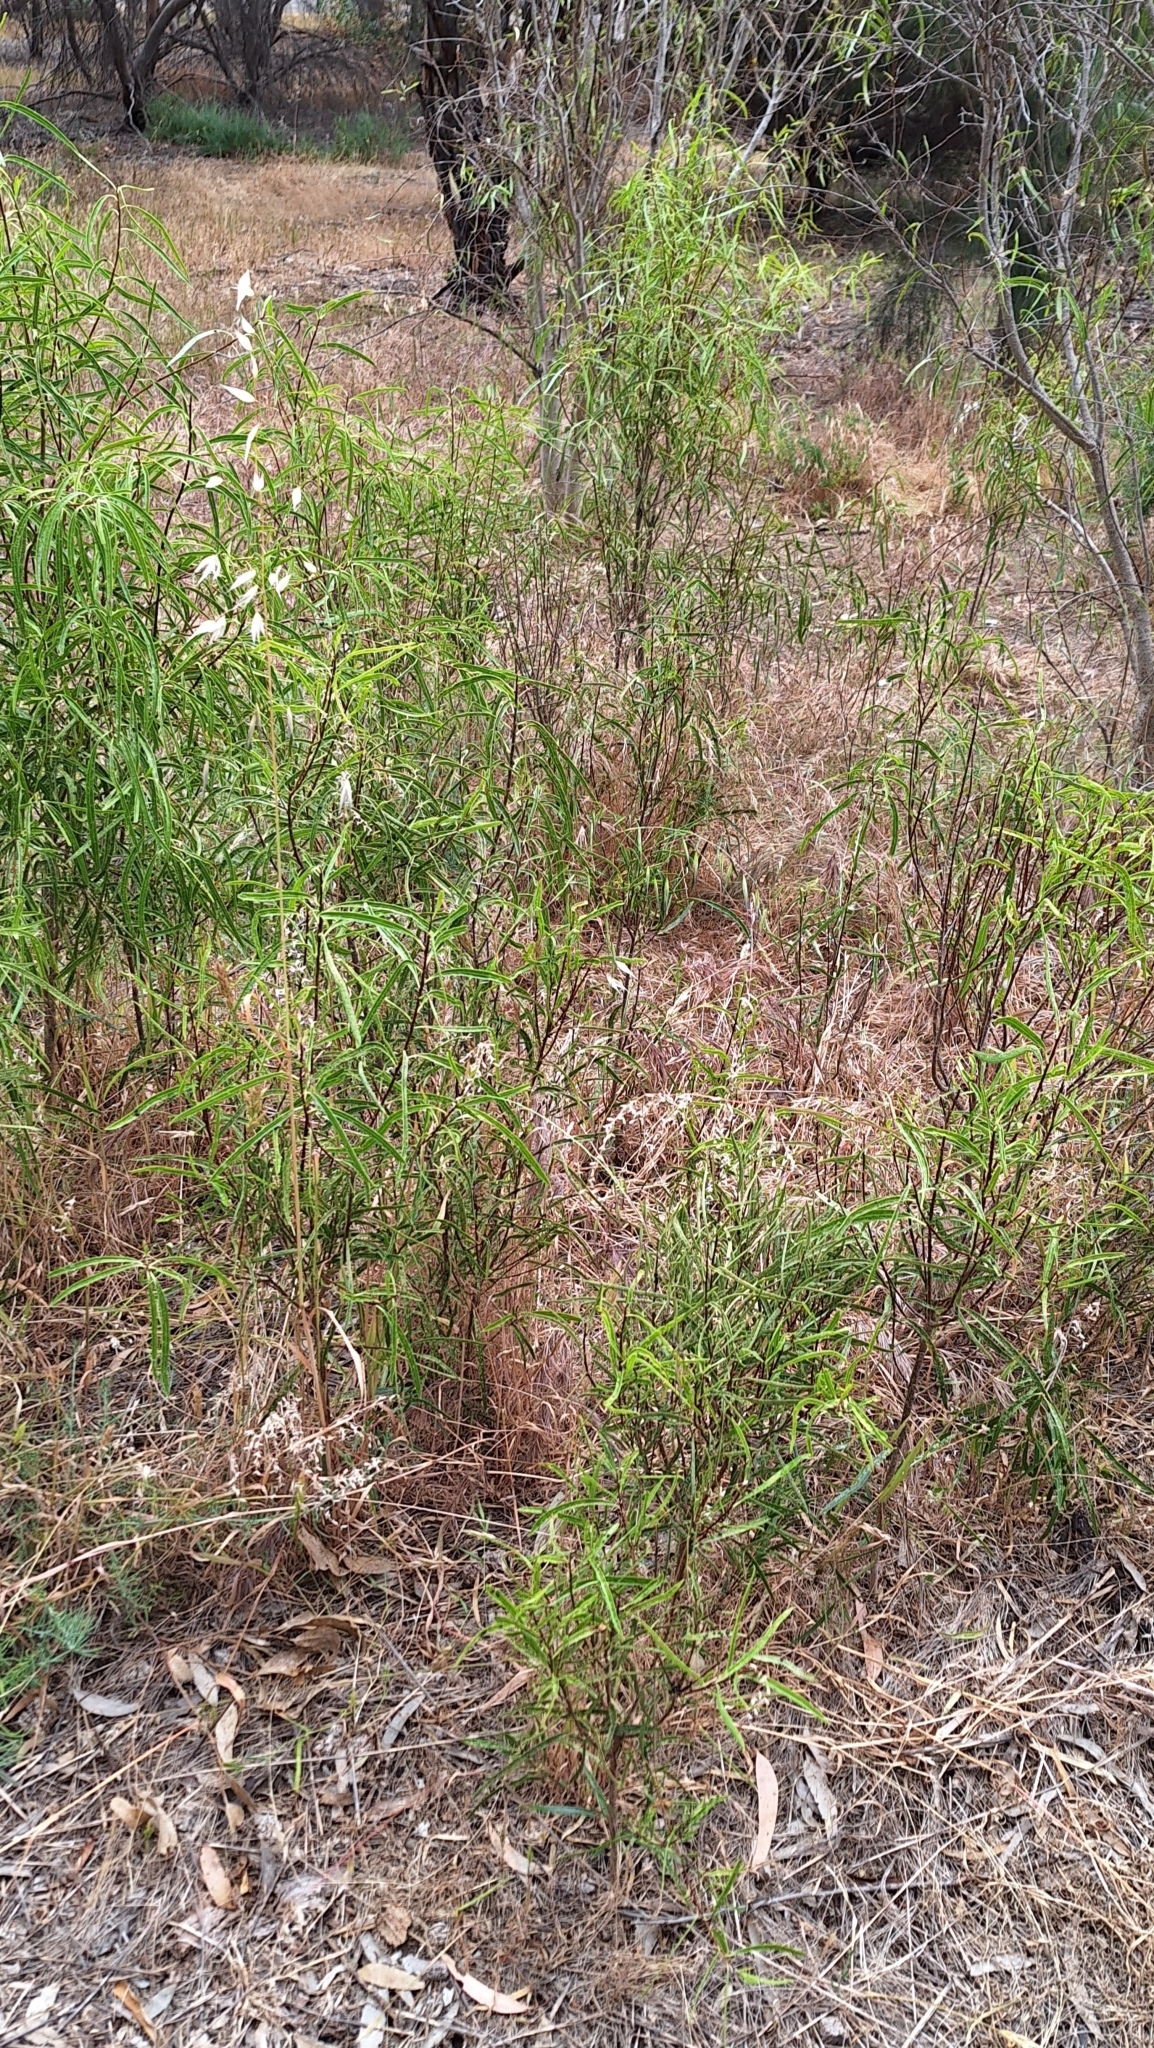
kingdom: Plantae
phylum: Tracheophyta
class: Magnoliopsida
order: Apiales
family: Pittosporaceae
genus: Pittosporum
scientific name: Pittosporum angustifolium
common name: Weeping pittosporum
